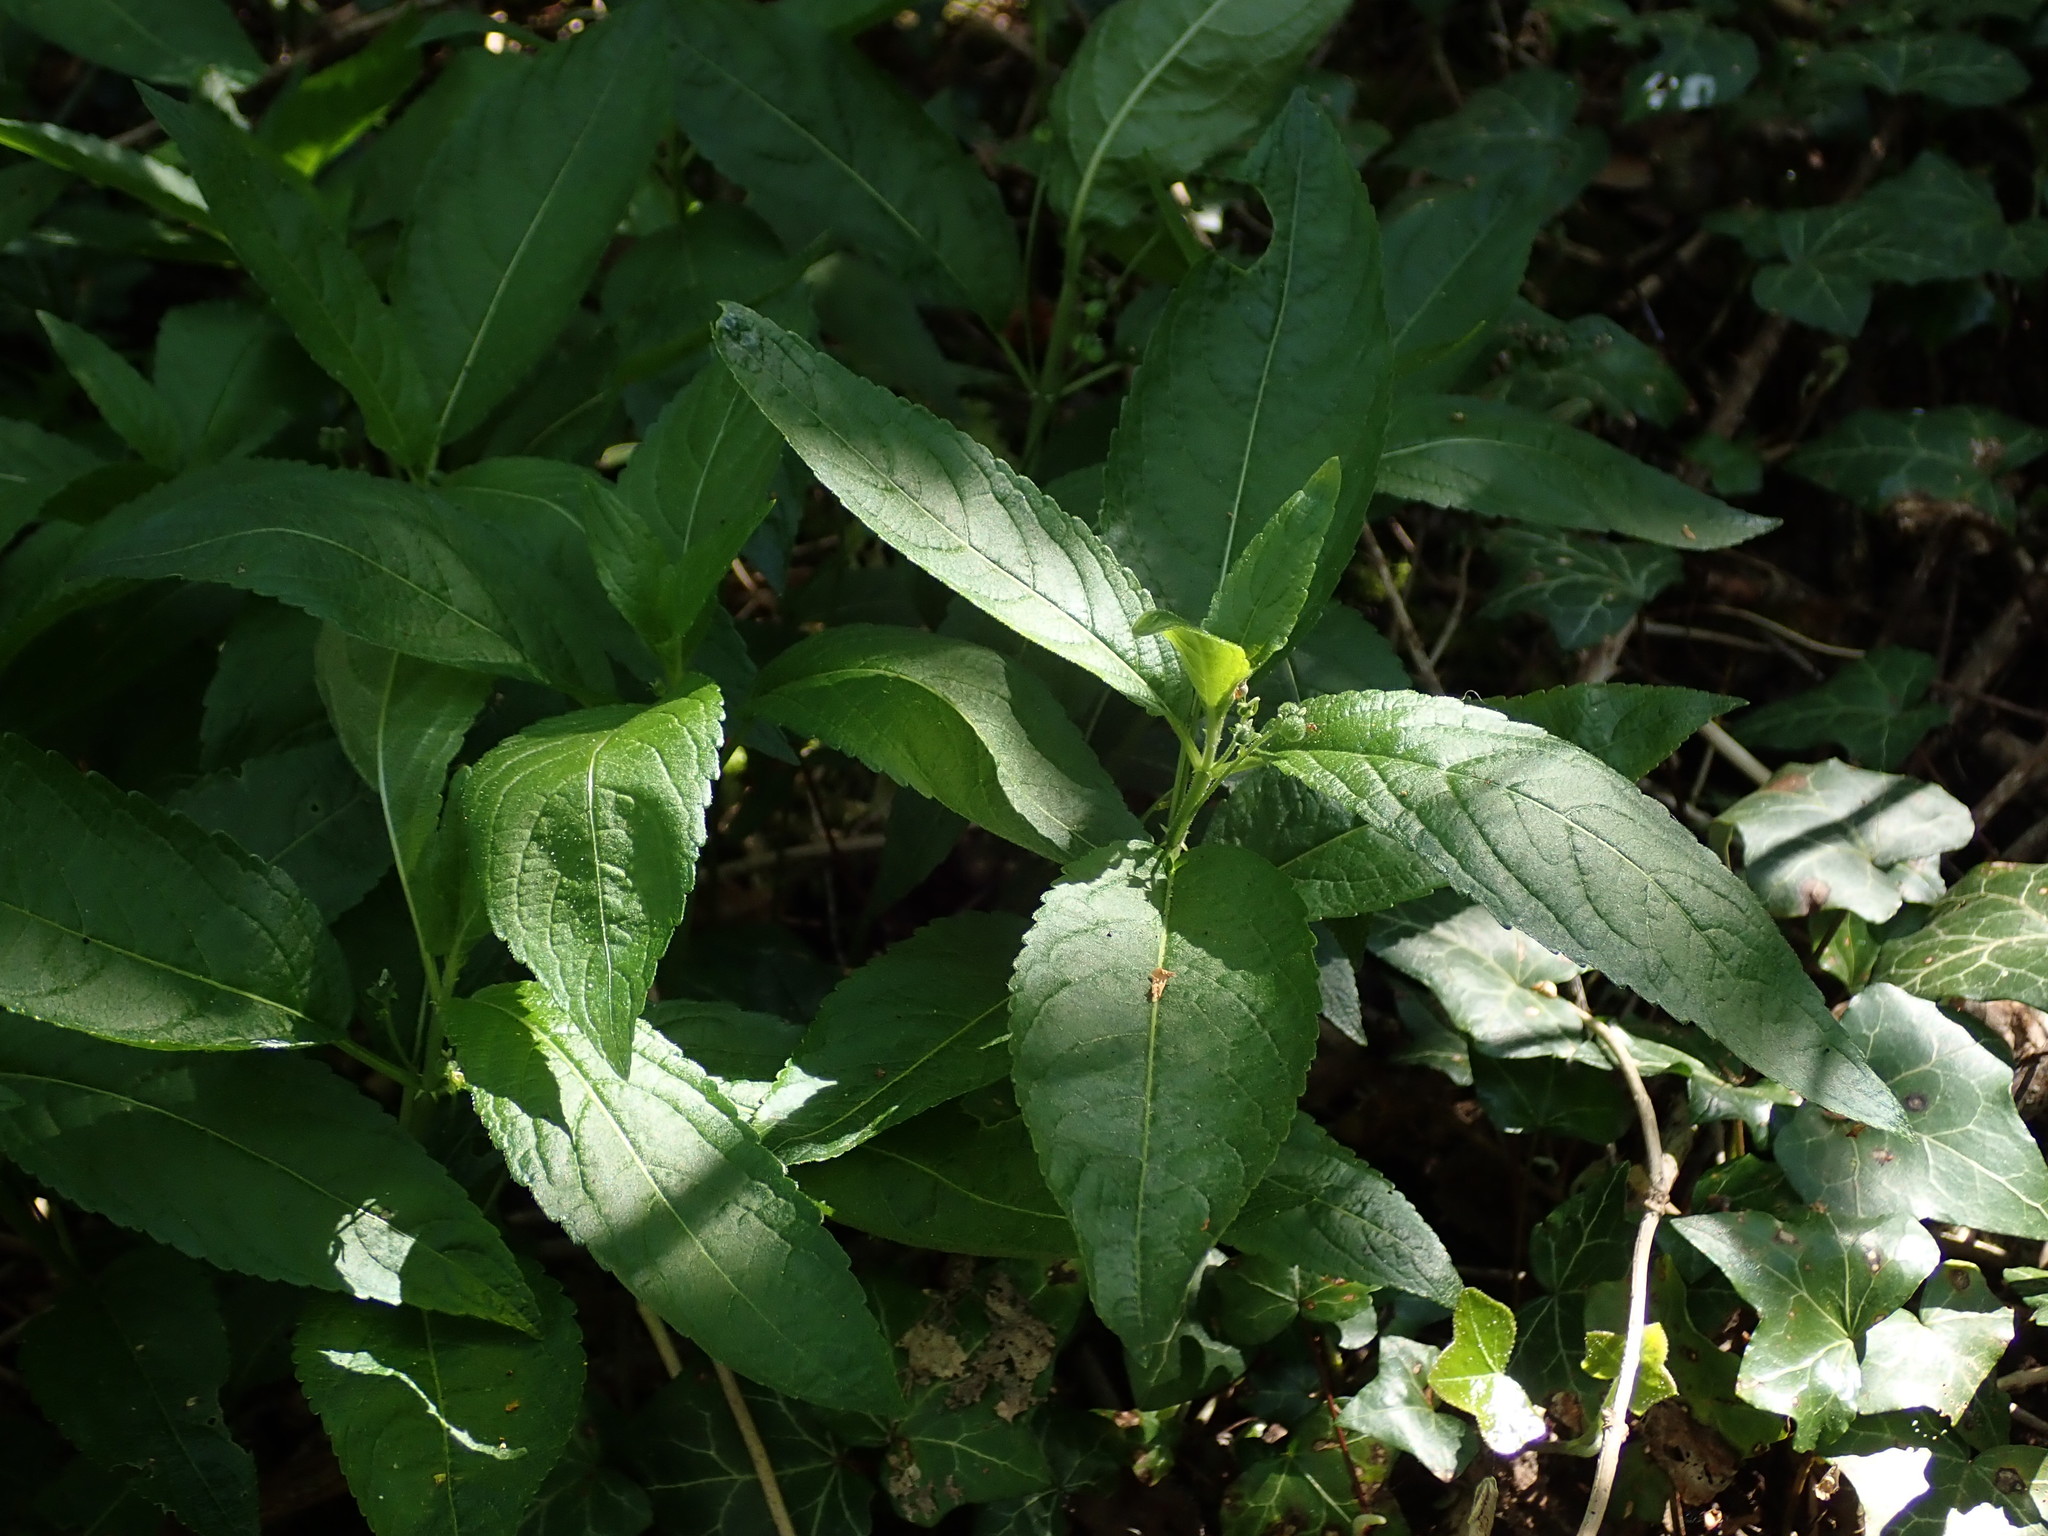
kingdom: Plantae
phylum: Tracheophyta
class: Magnoliopsida
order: Malpighiales
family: Euphorbiaceae
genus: Mercurialis
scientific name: Mercurialis perennis
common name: Dog mercury
